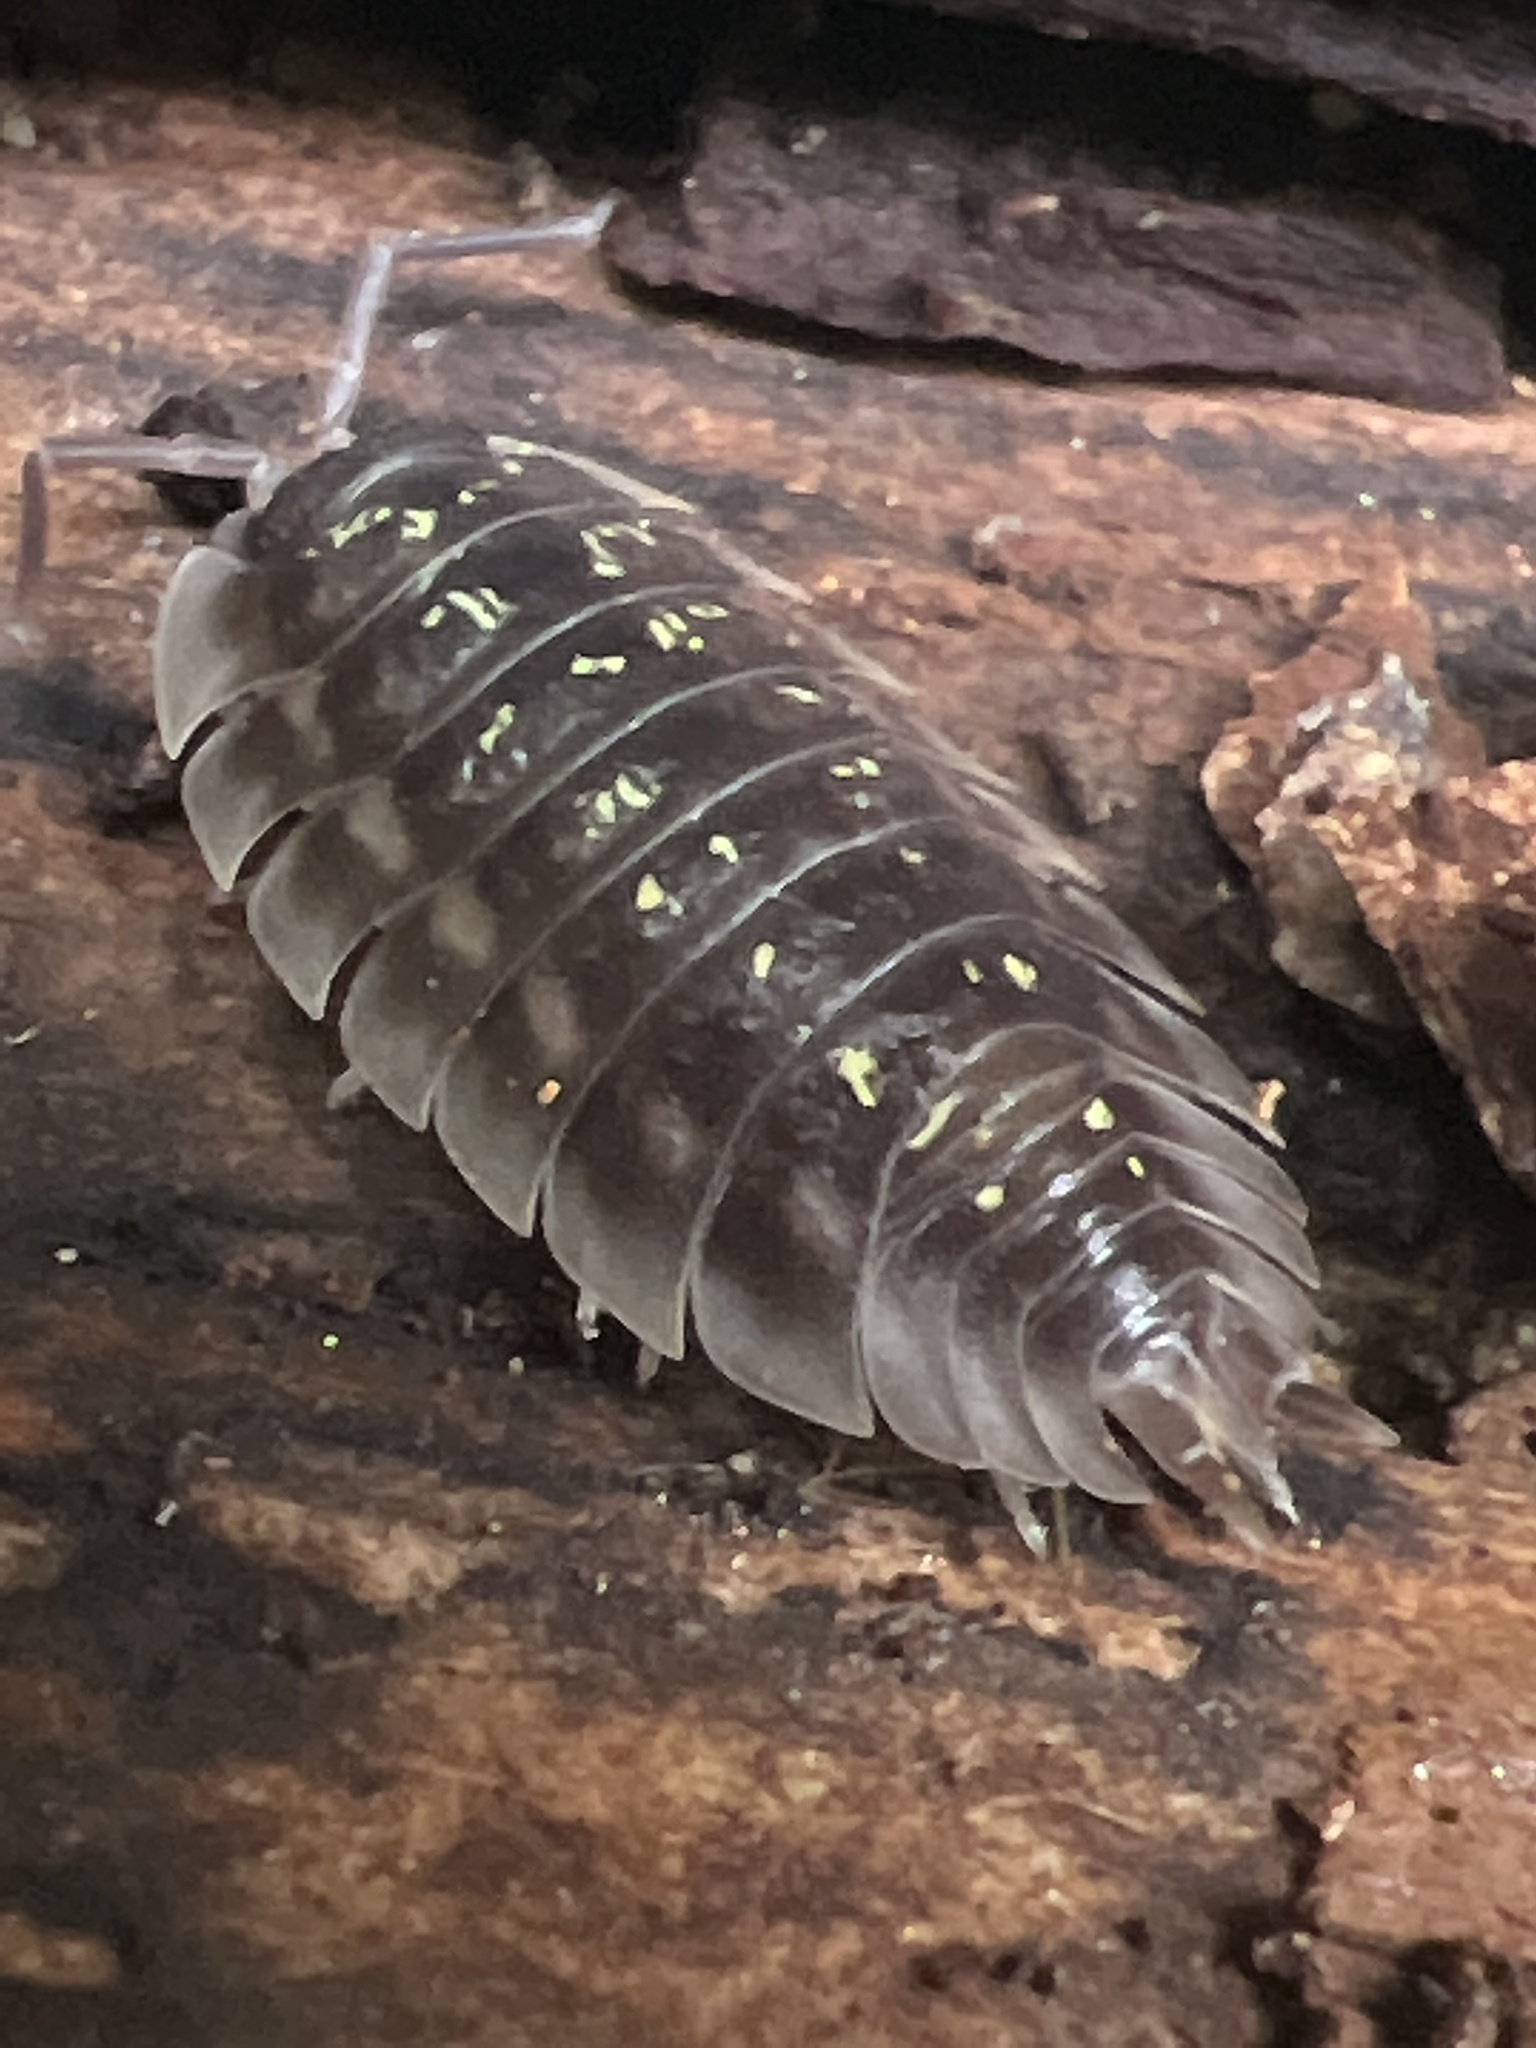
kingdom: Animalia
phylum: Arthropoda
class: Malacostraca
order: Isopoda
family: Oniscidae
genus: Oniscus
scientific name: Oniscus asellus
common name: Common shiny woodlouse
